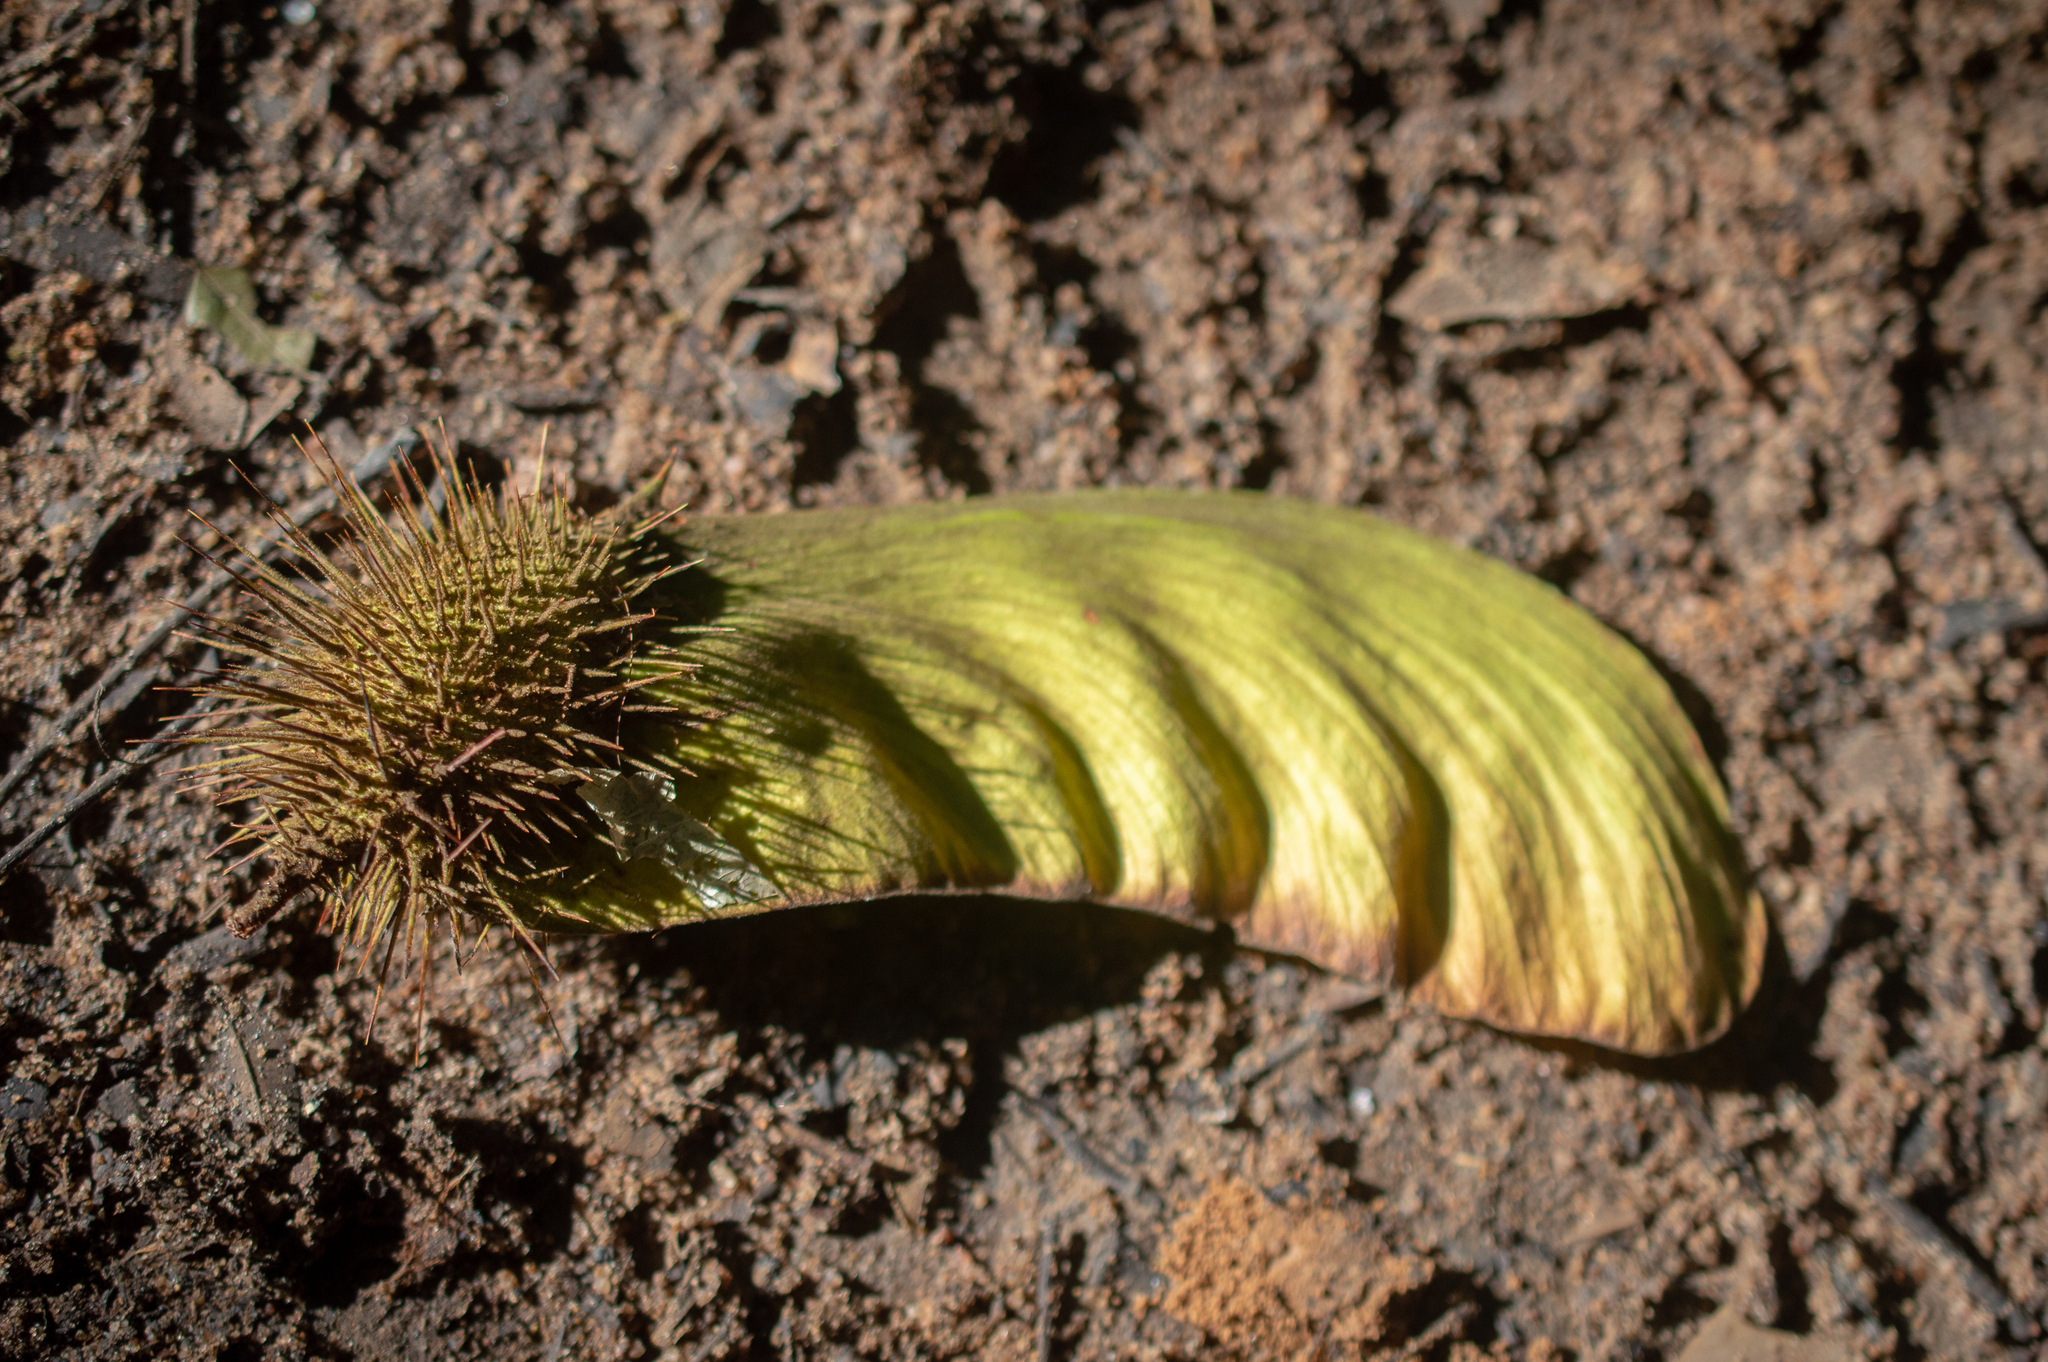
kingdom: Plantae
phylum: Tracheophyta
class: Magnoliopsida
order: Fabales
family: Fabaceae
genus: Centrolobium
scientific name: Centrolobium paraense
